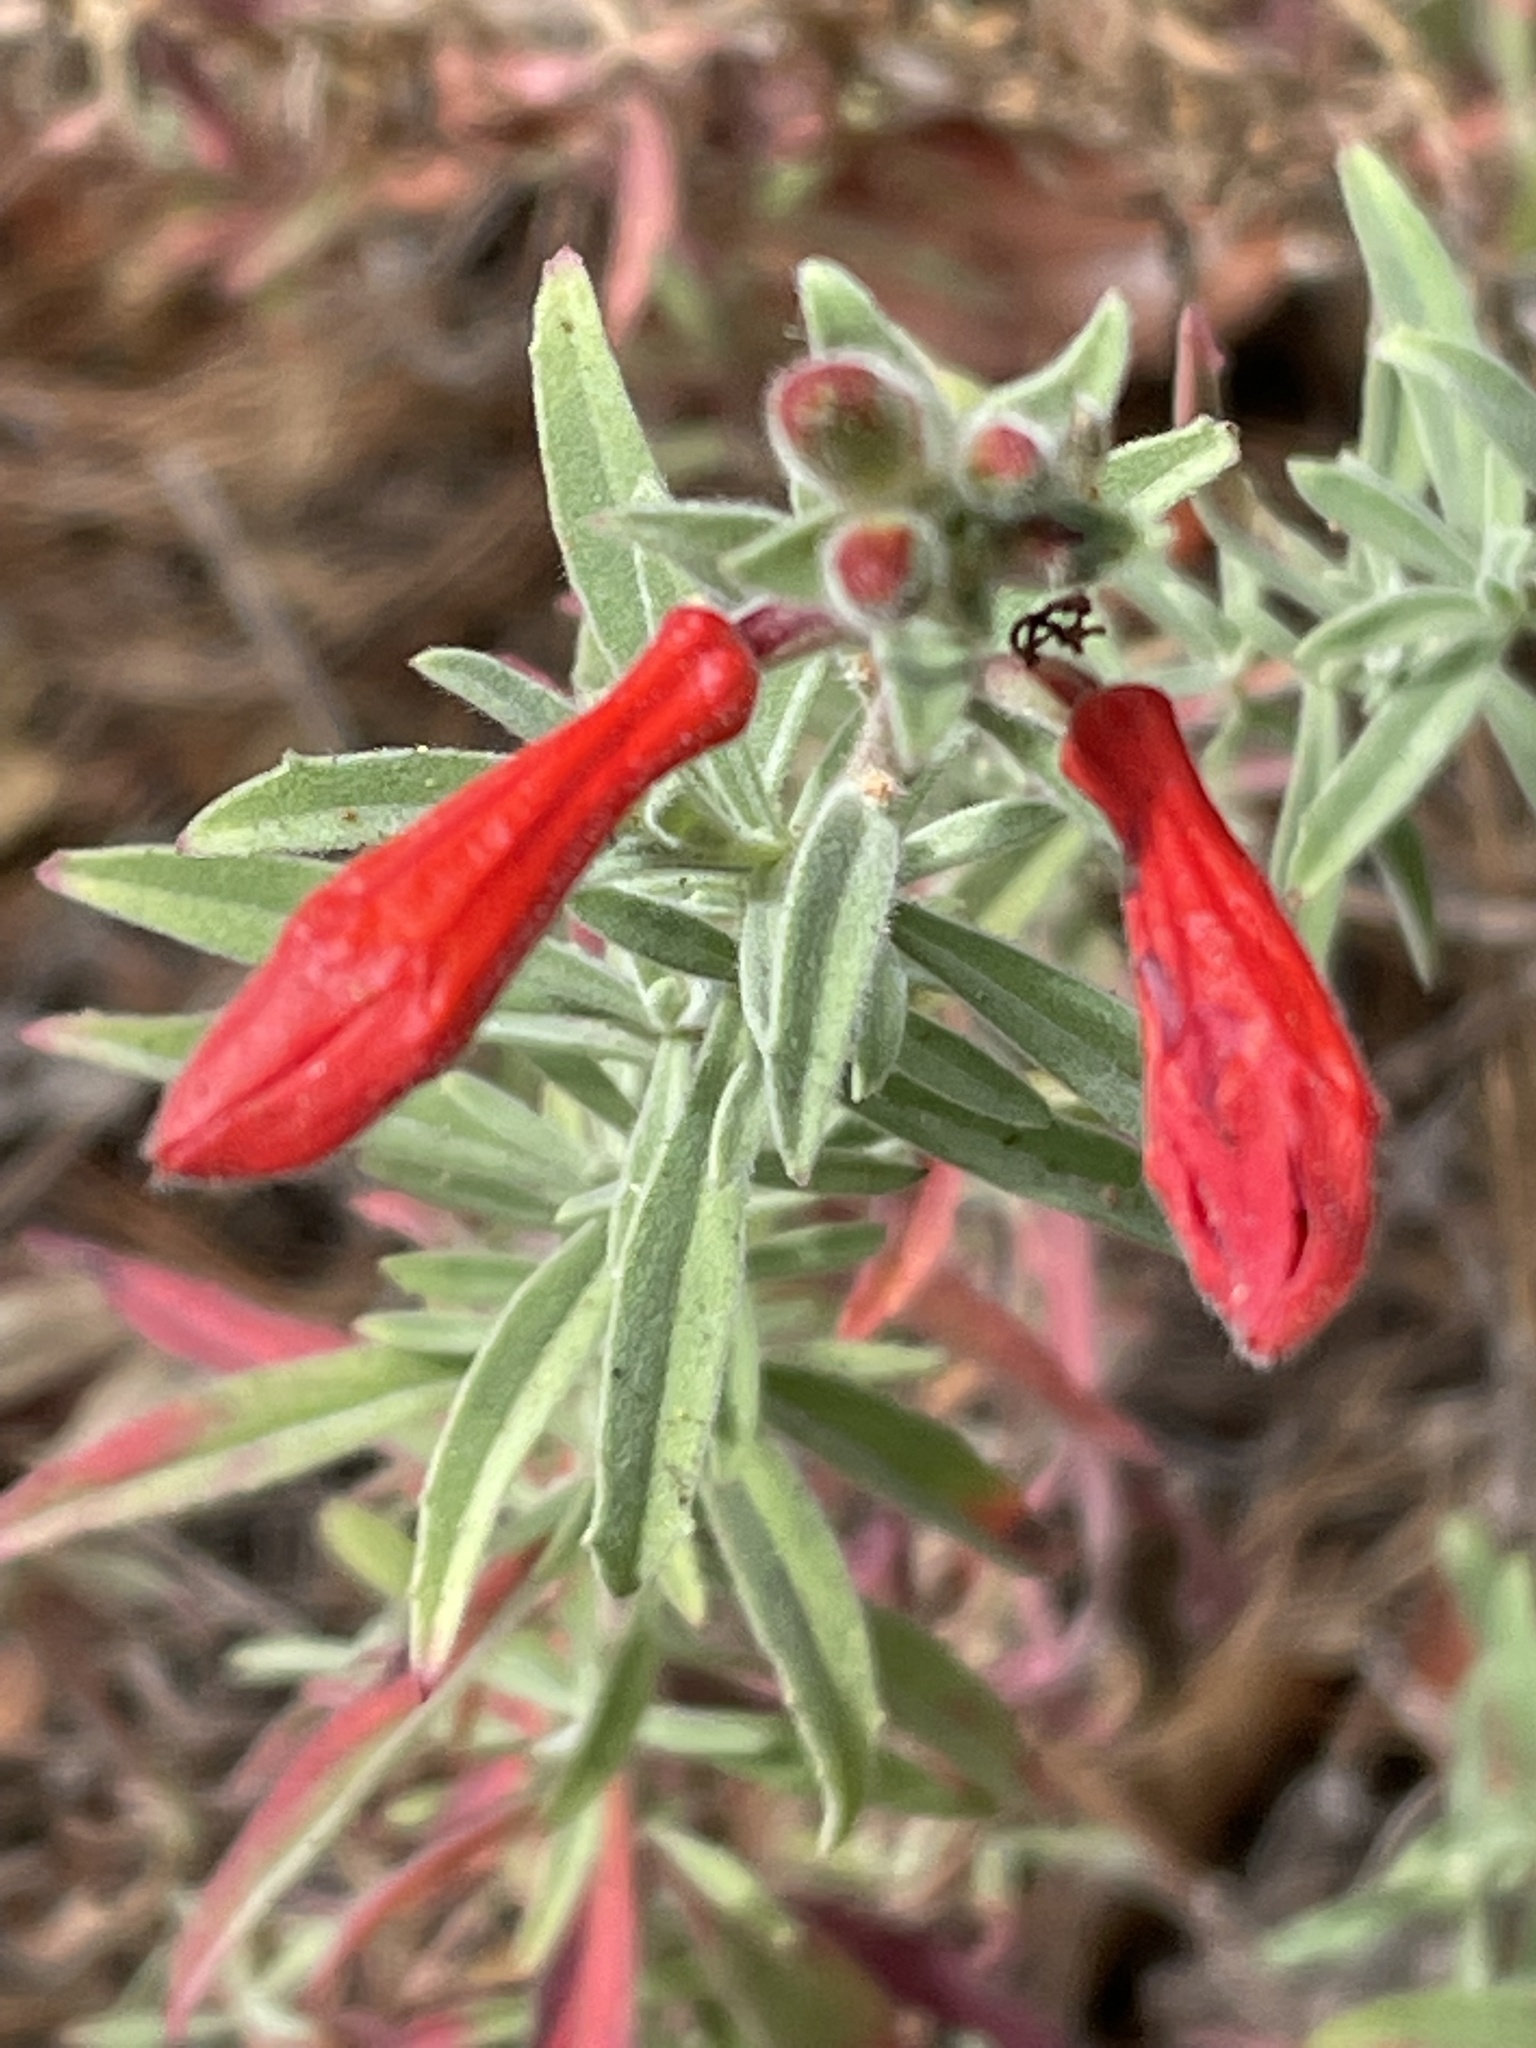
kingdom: Plantae
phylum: Tracheophyta
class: Magnoliopsida
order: Myrtales
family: Onagraceae
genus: Epilobium
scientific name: Epilobium canum
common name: California-fuchsia
